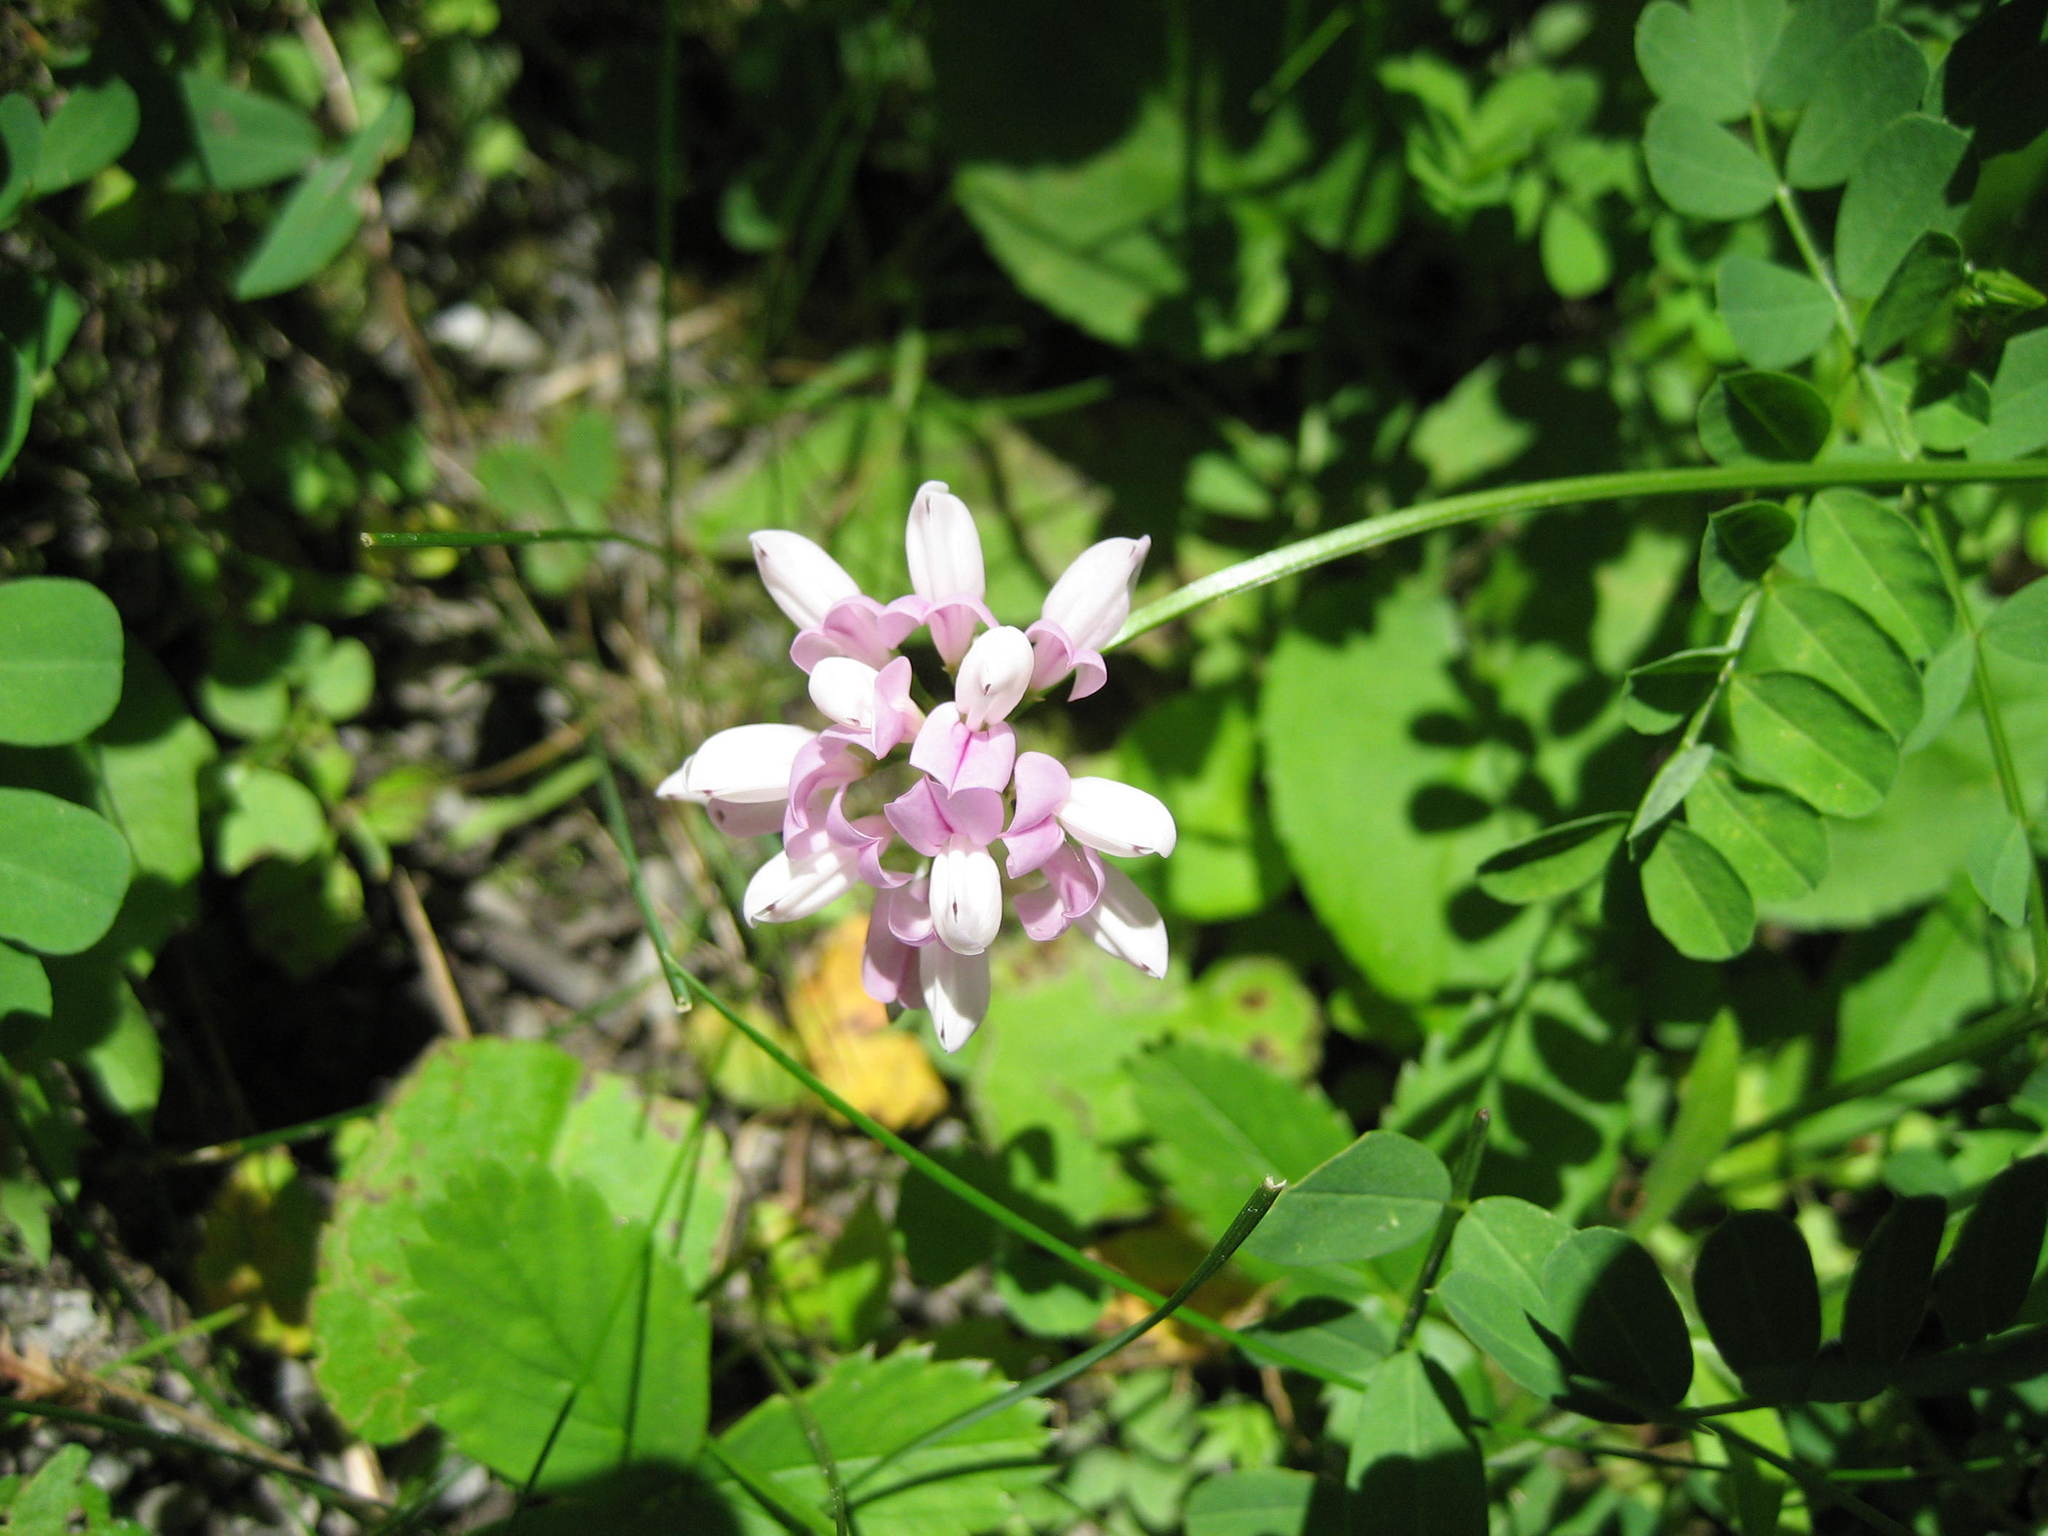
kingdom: Plantae
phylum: Tracheophyta
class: Magnoliopsida
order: Fabales
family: Fabaceae
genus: Coronilla
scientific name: Coronilla varia
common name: Crownvetch
